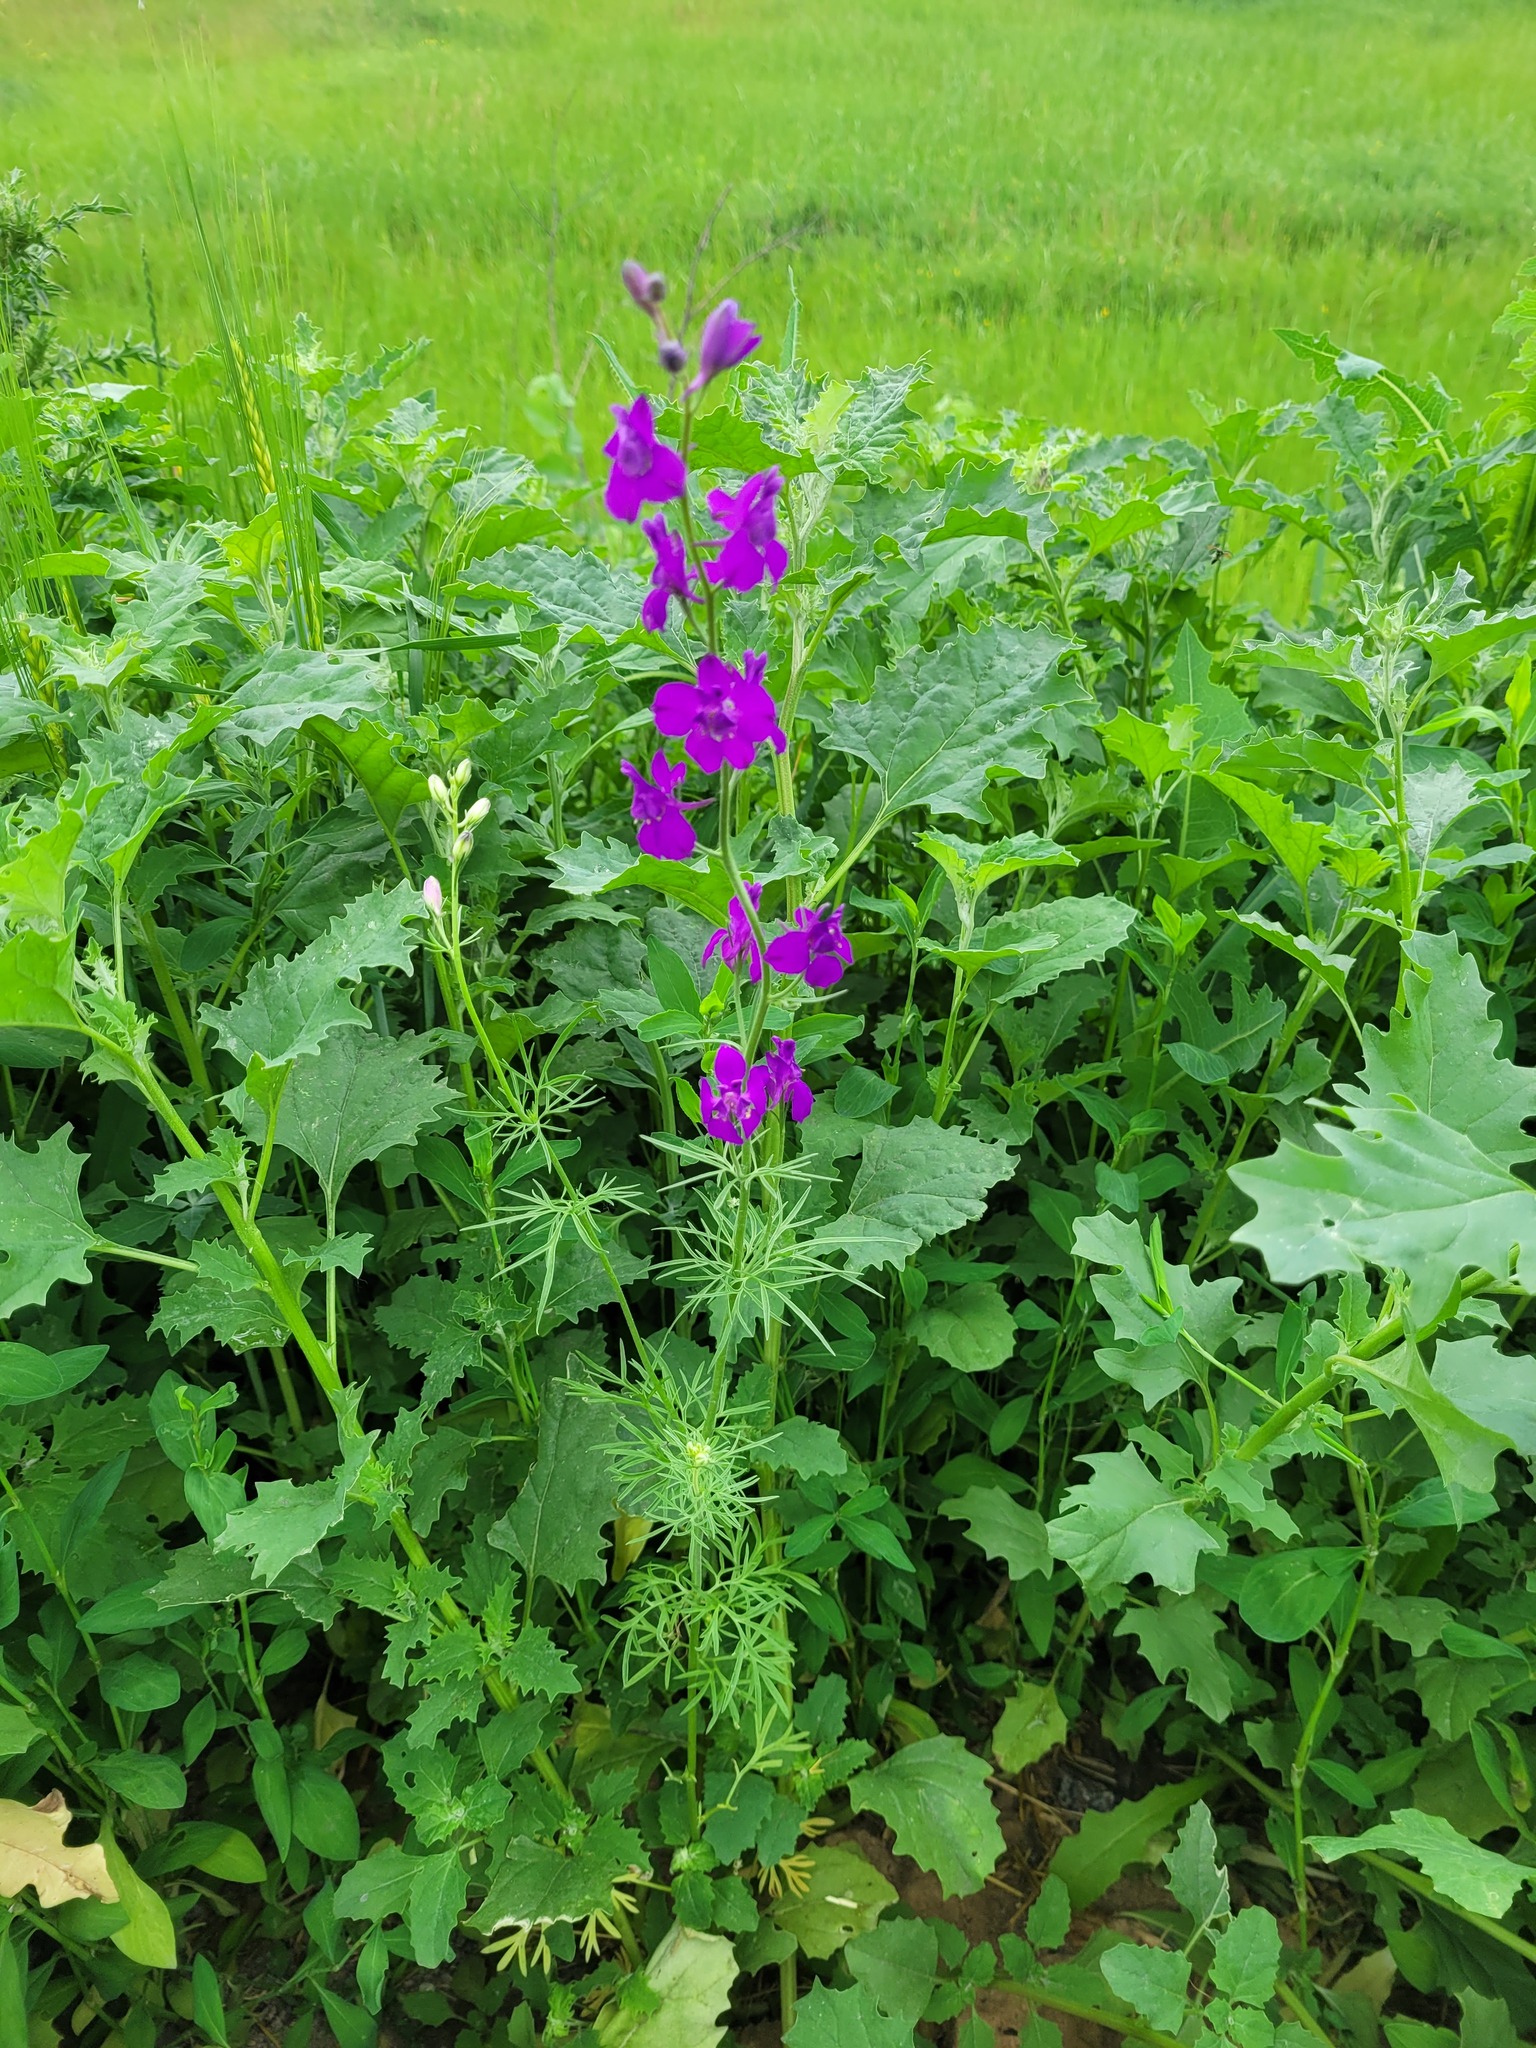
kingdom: Plantae
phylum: Tracheophyta
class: Magnoliopsida
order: Ranunculales
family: Ranunculaceae
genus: Delphinium
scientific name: Delphinium ajacis
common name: Doubtful knight's-spur
